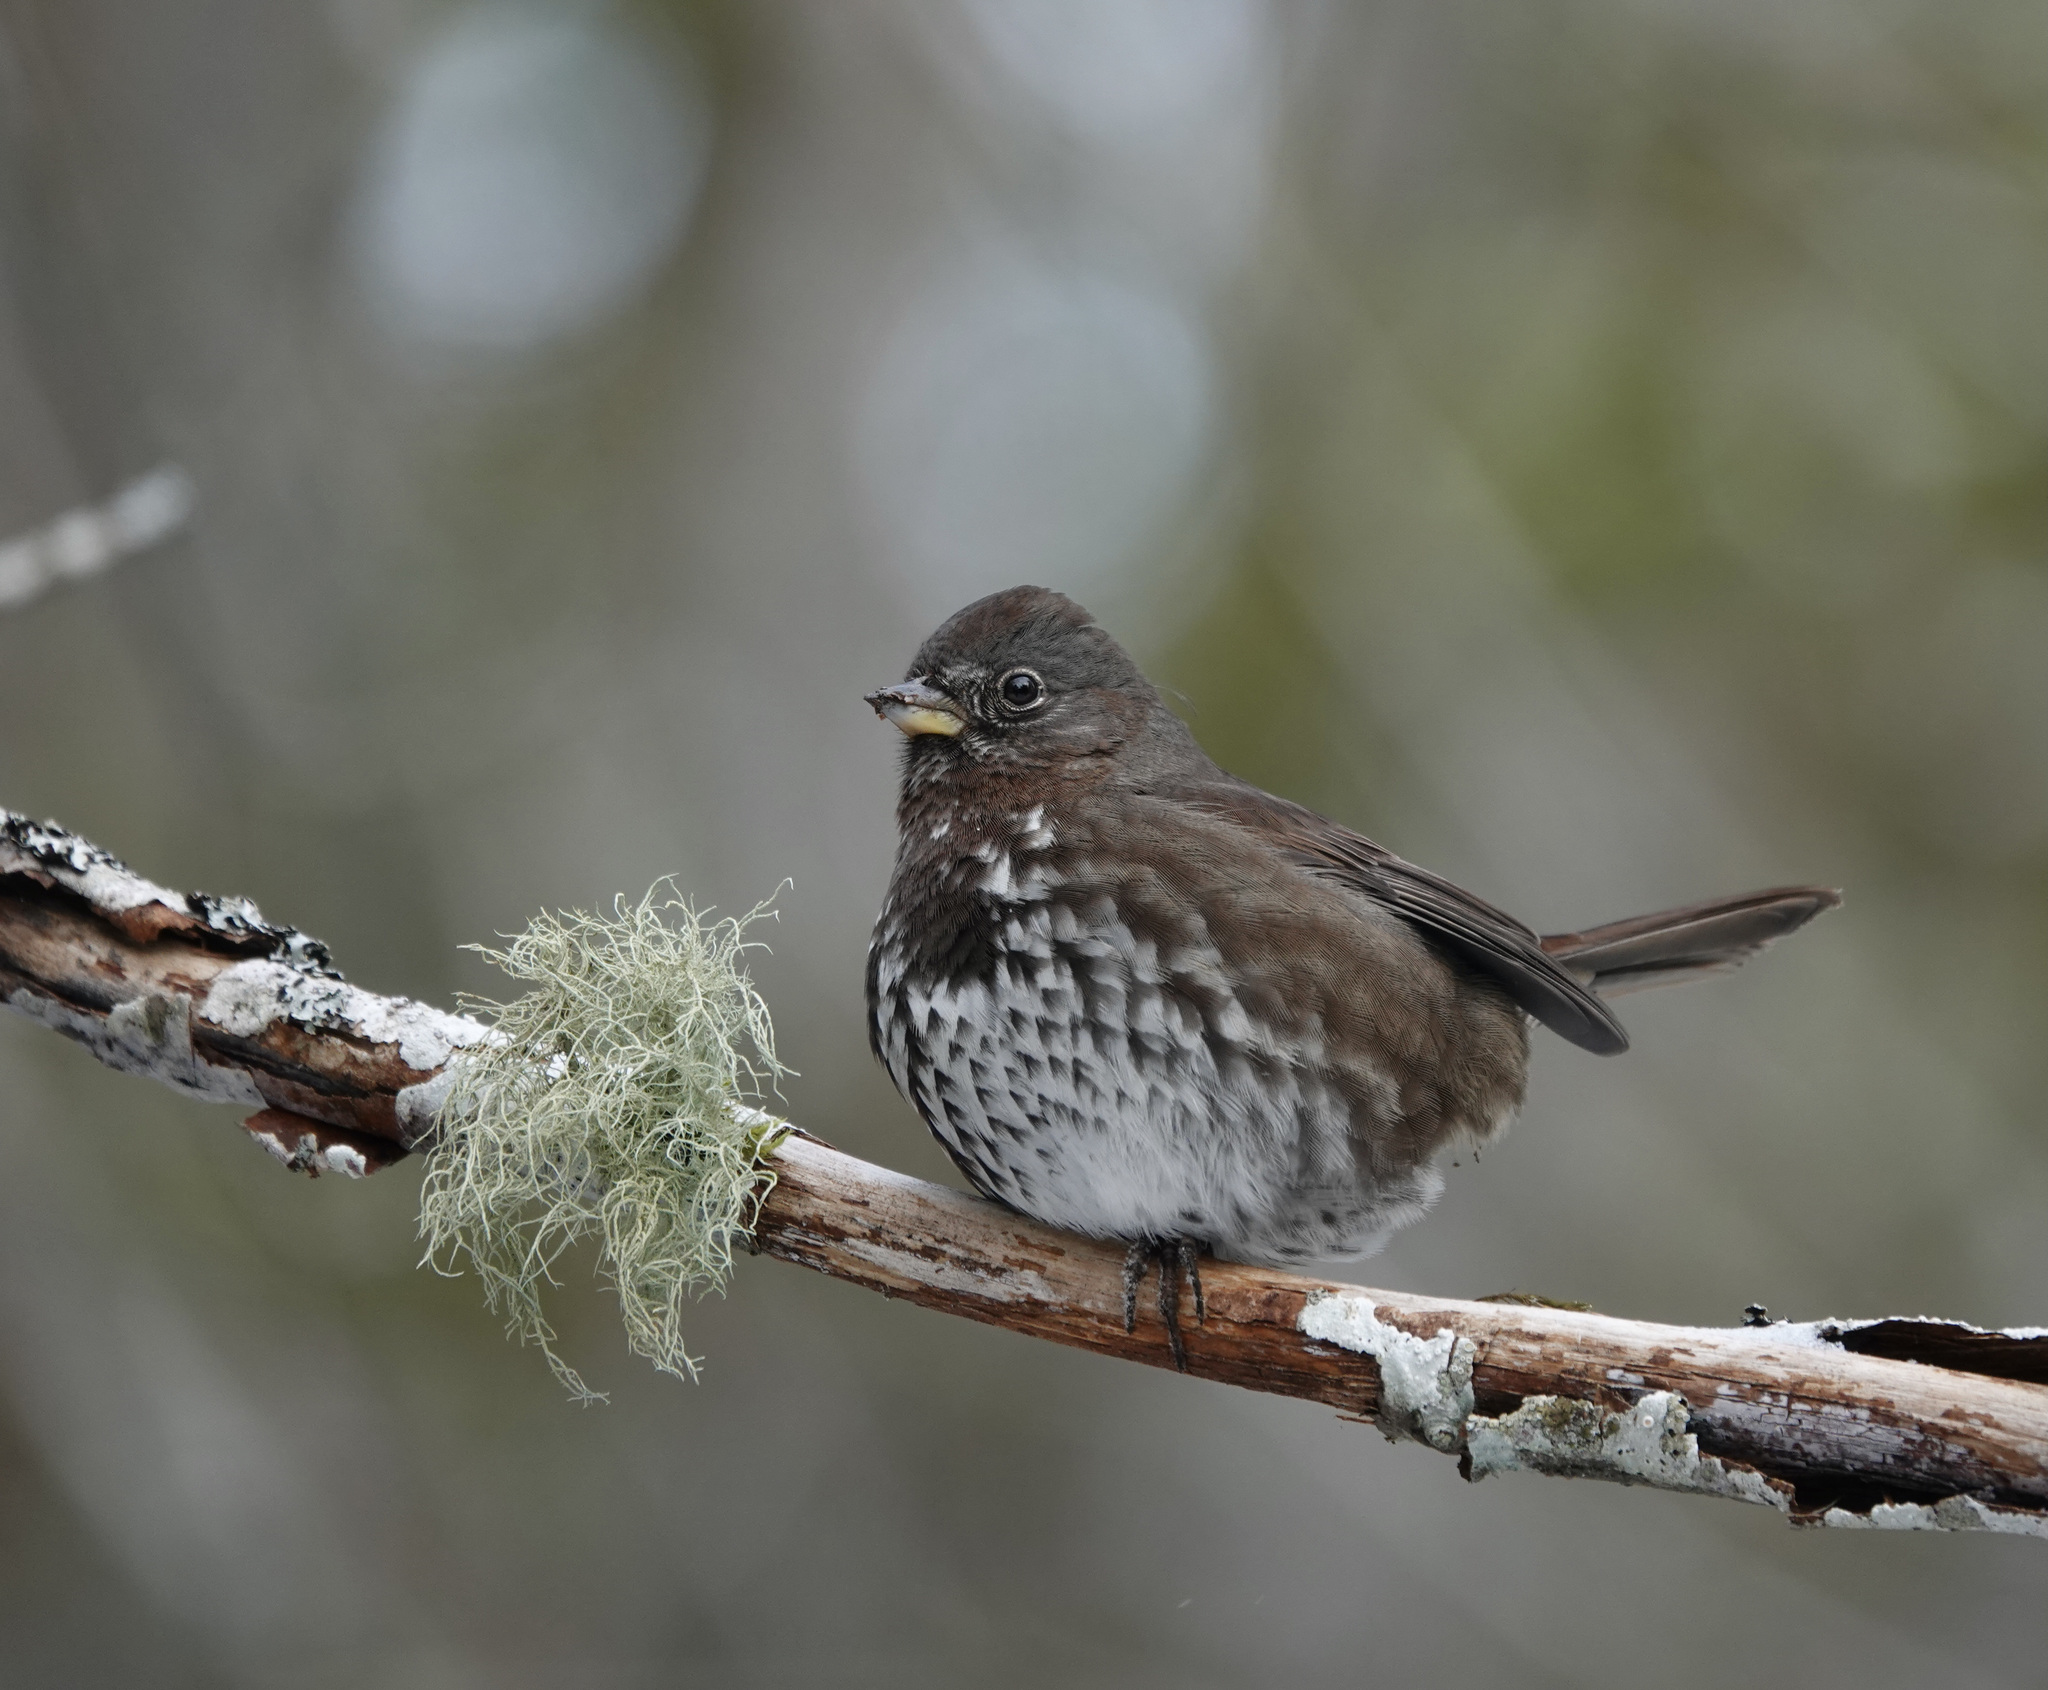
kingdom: Animalia
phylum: Chordata
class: Aves
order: Passeriformes
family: Passerellidae
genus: Passerella
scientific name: Passerella iliaca
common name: Fox sparrow
